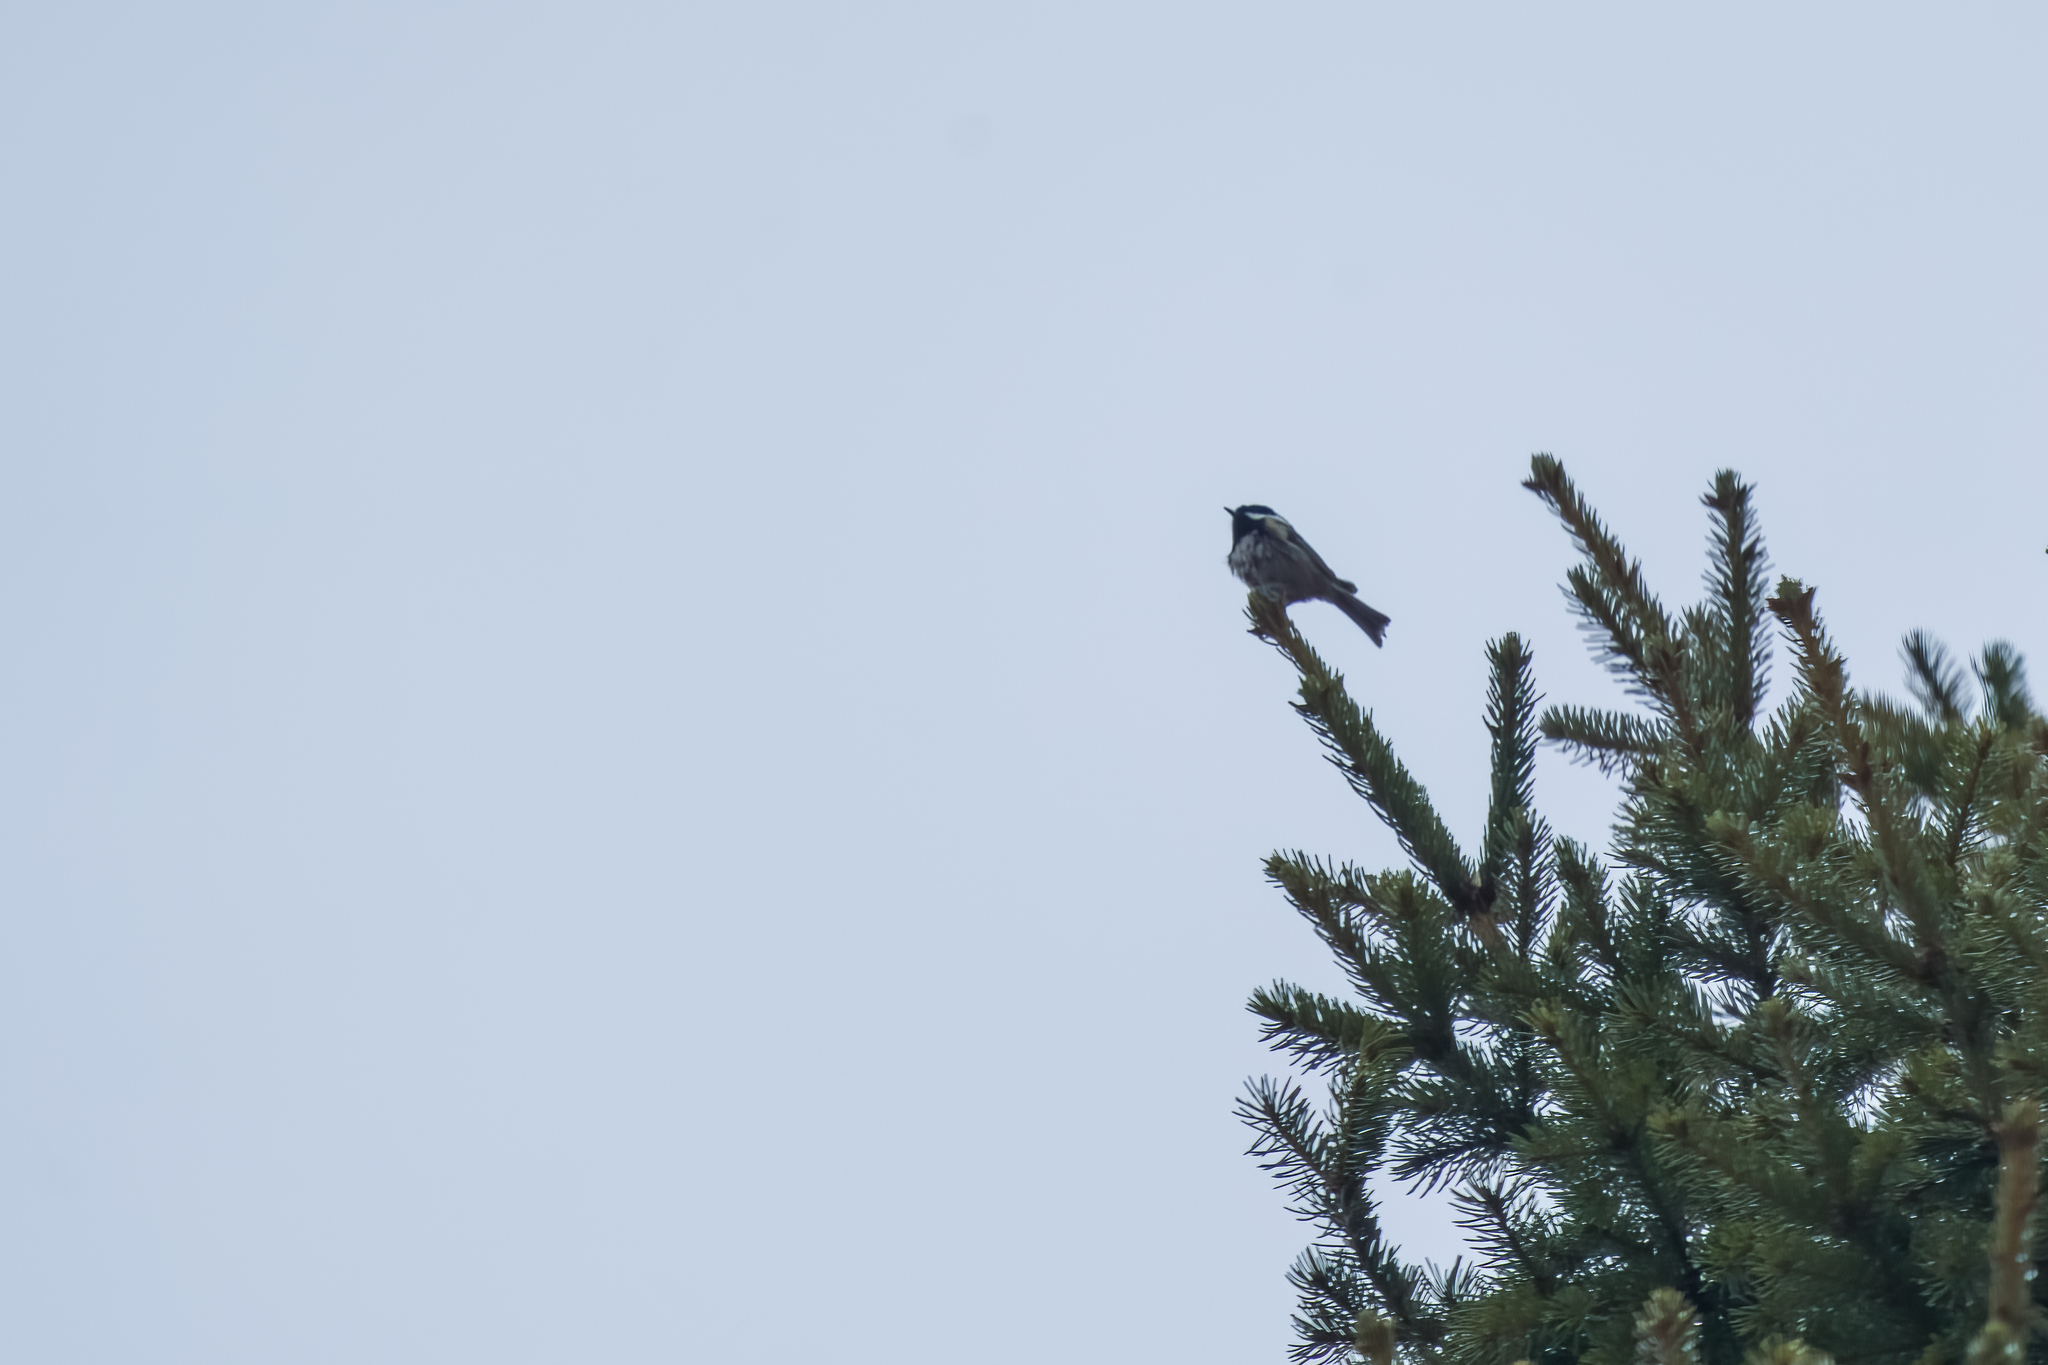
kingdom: Animalia
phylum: Chordata
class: Aves
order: Passeriformes
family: Paridae
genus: Periparus
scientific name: Periparus ater
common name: Coal tit
